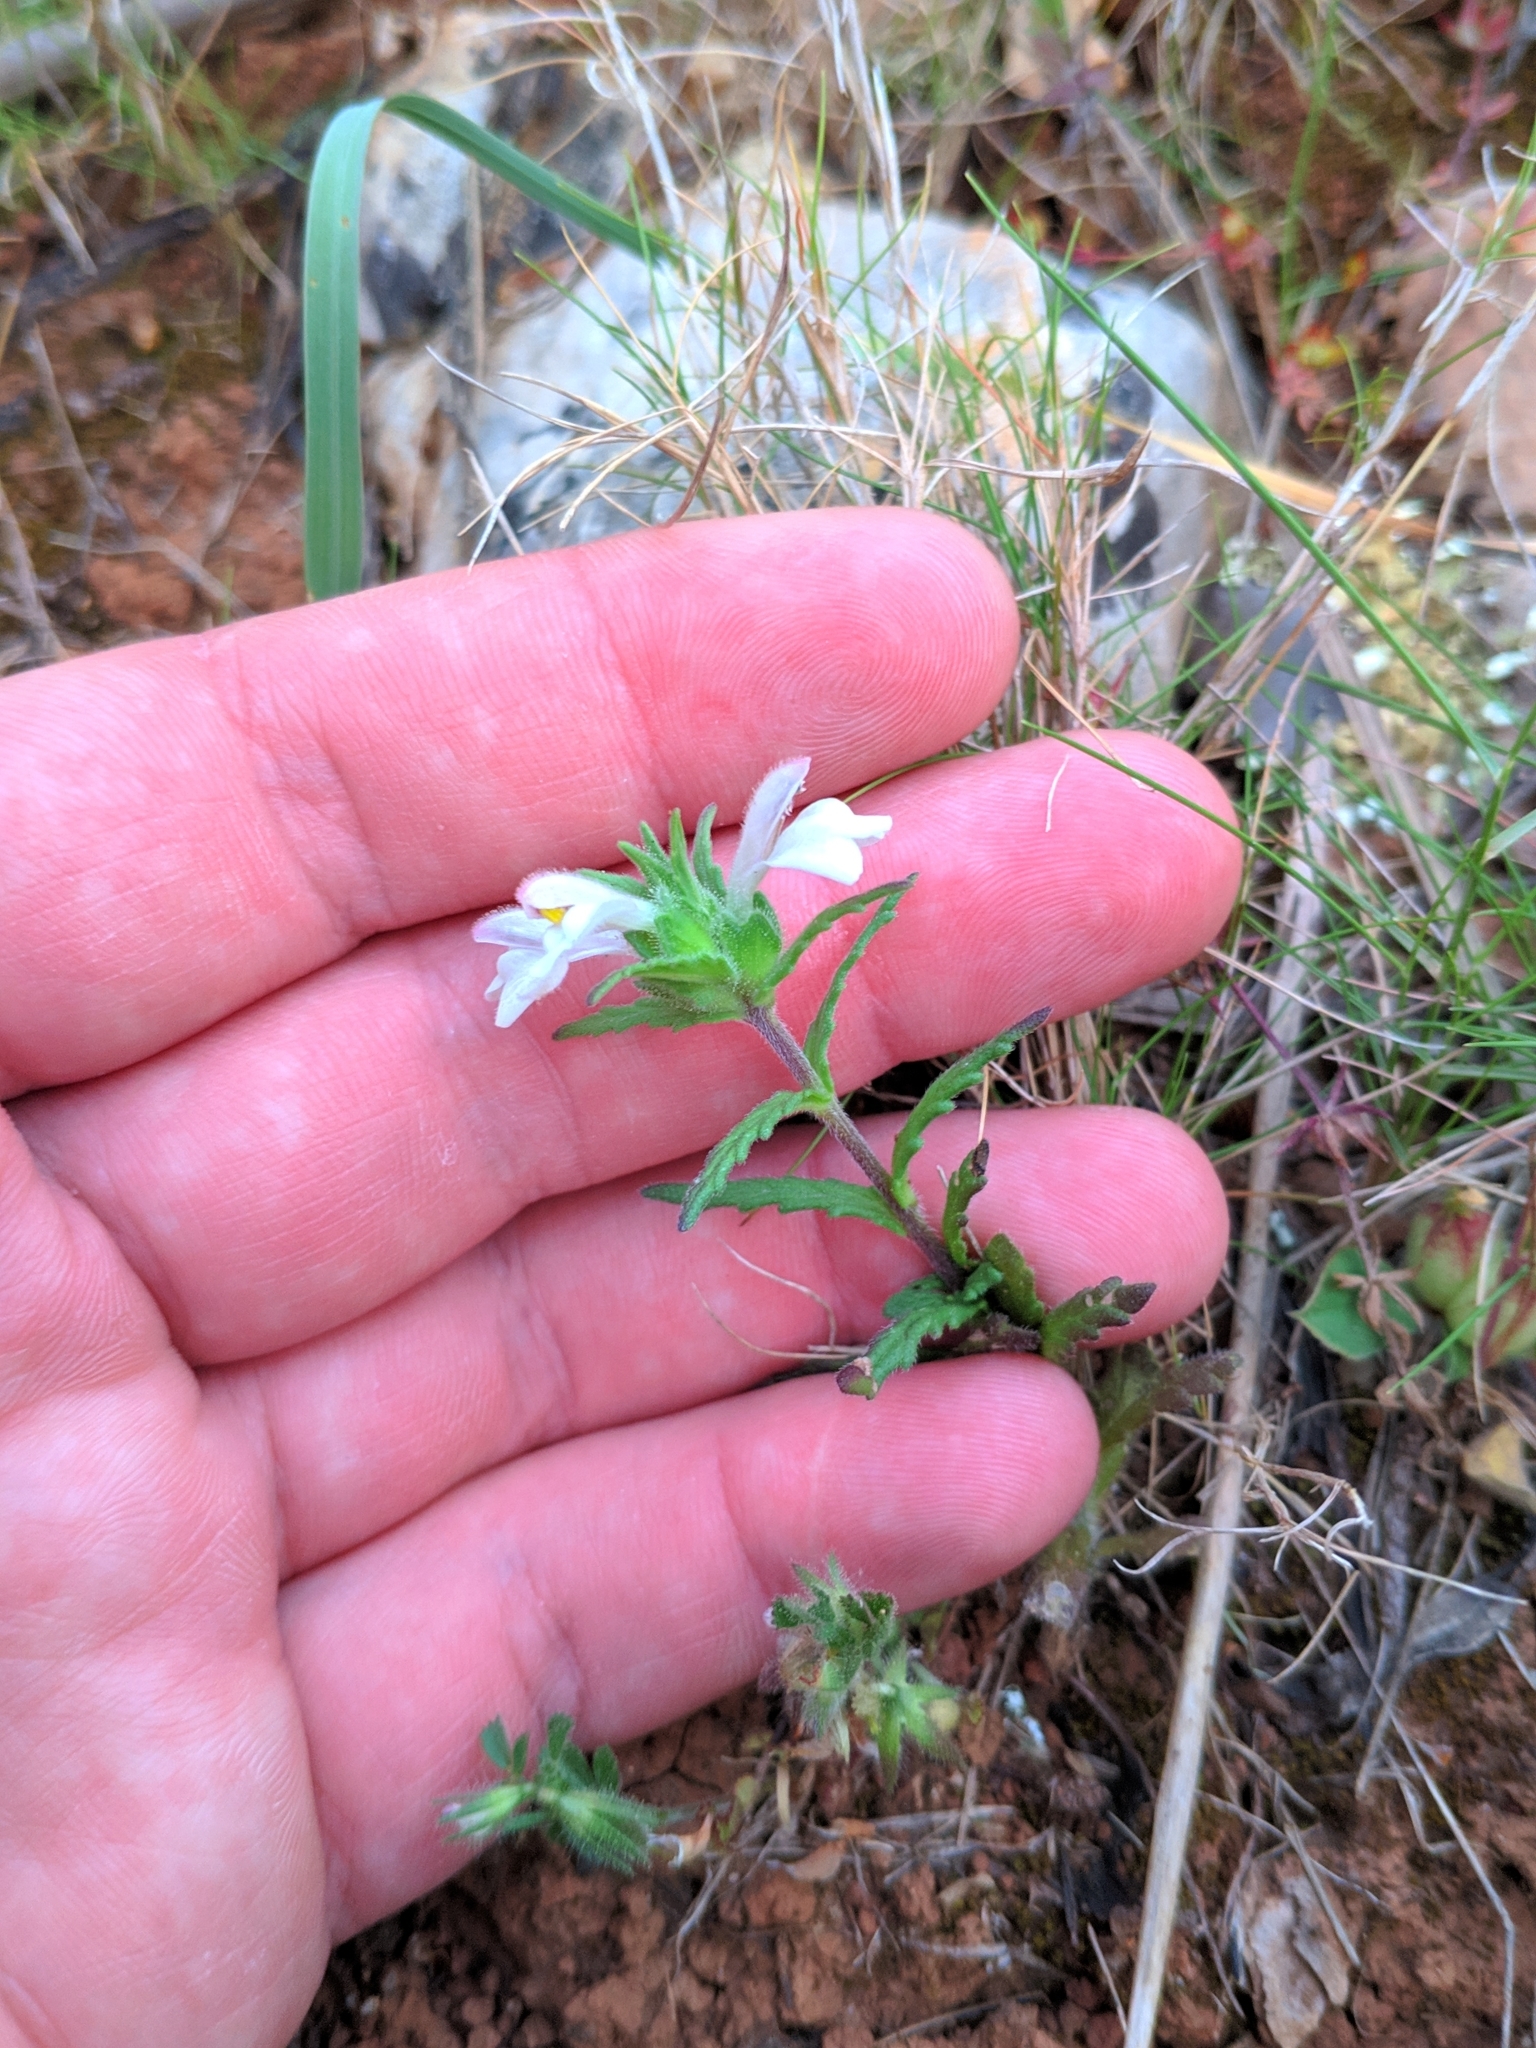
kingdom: Plantae
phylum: Tracheophyta
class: Magnoliopsida
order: Lamiales
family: Orobanchaceae
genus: Bellardia
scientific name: Bellardia trixago
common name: Mediterranean lineseed
